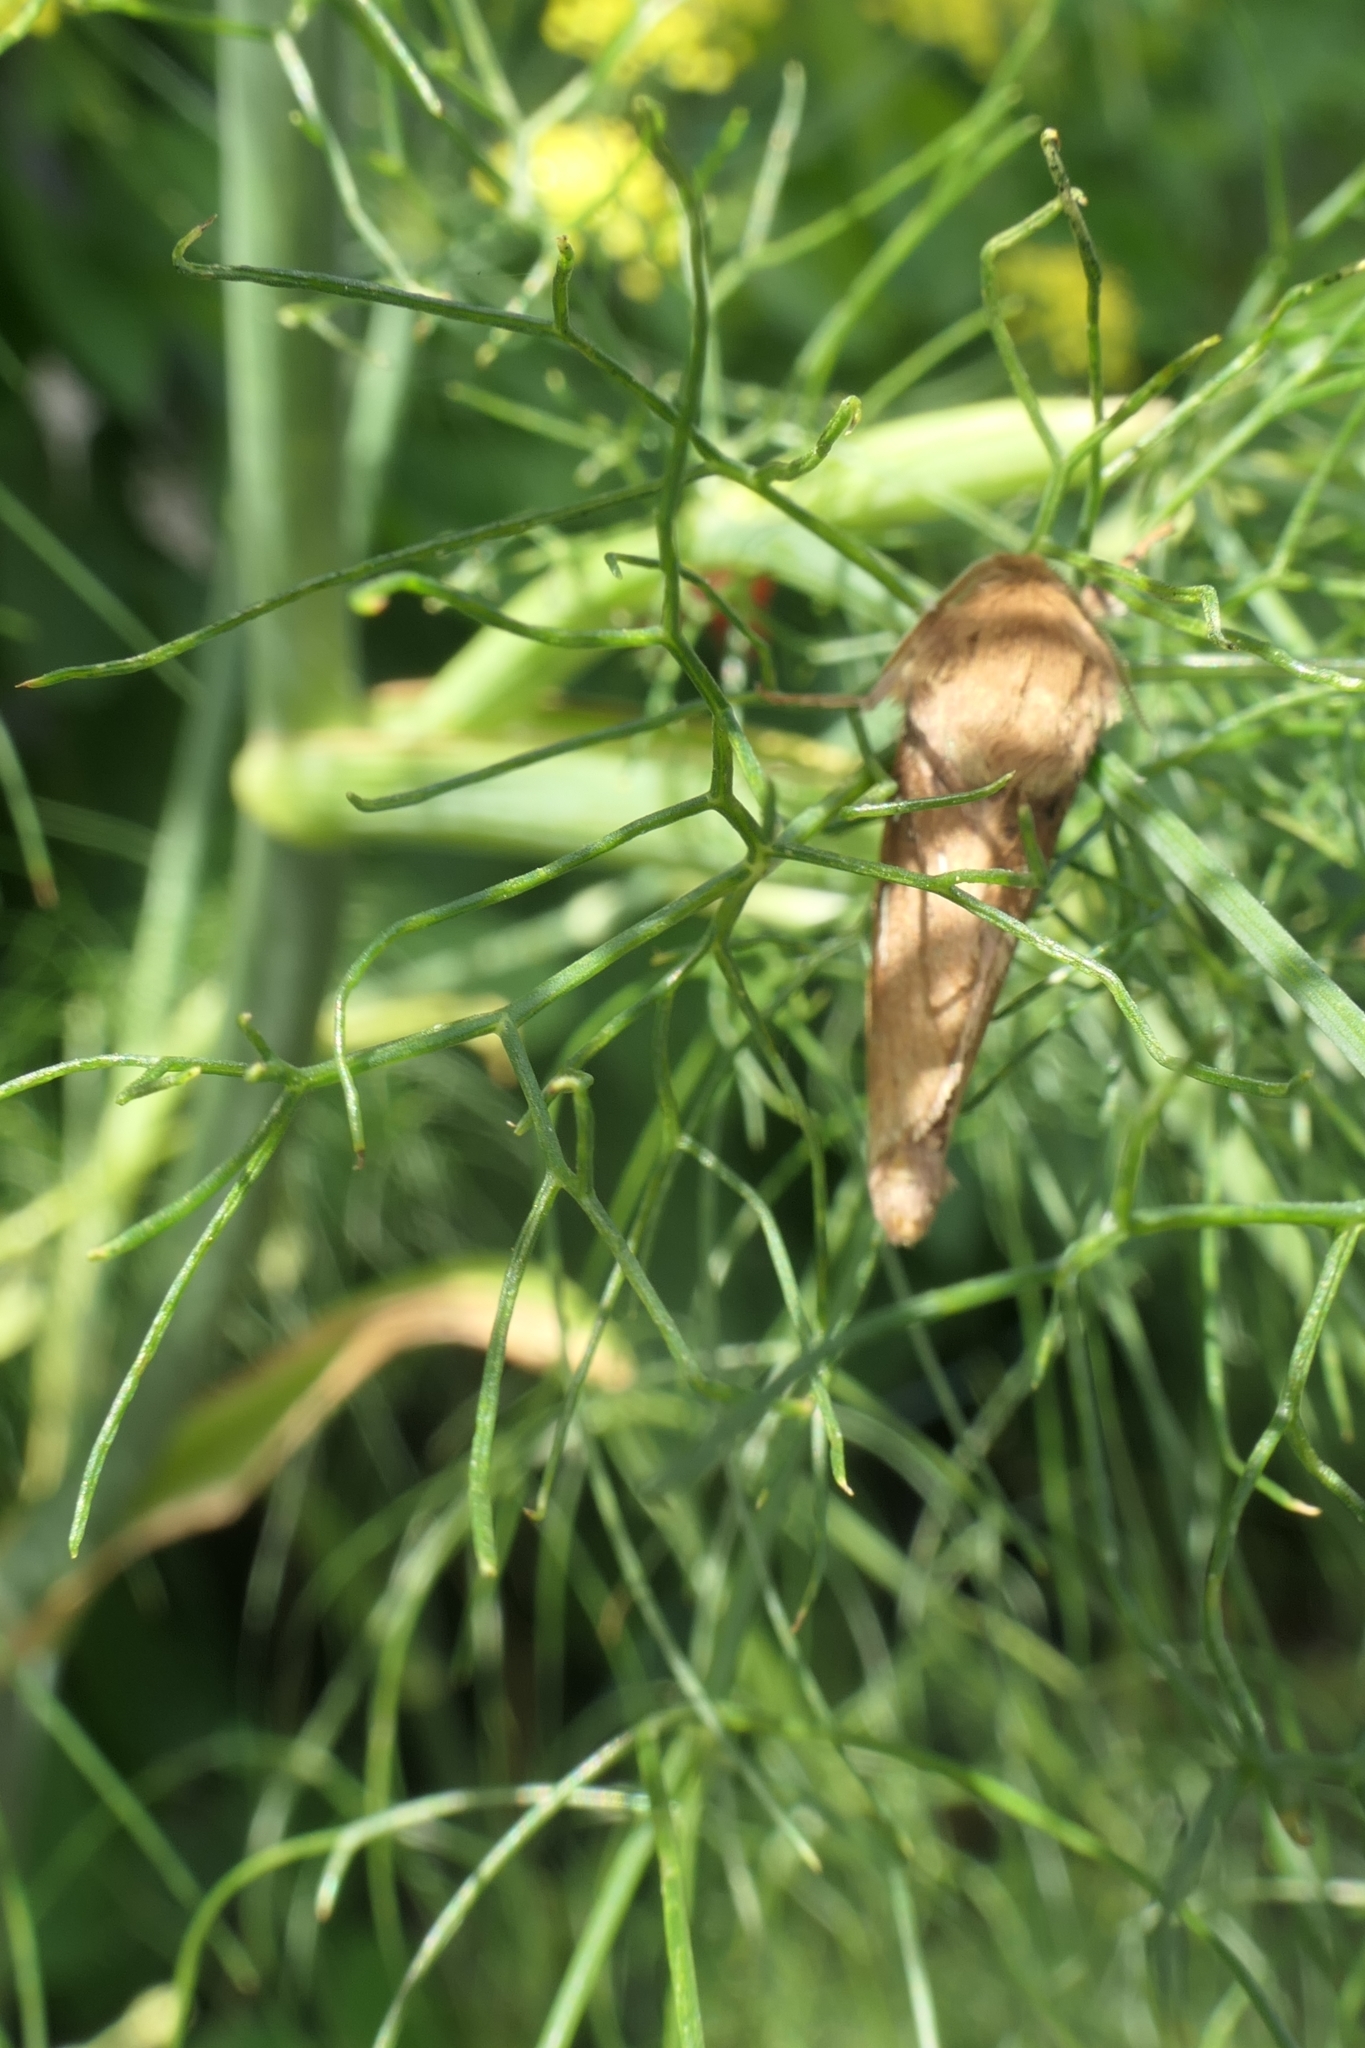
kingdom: Animalia
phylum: Arthropoda
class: Insecta
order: Lepidoptera
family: Hepialidae
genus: Wiseana
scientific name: Wiseana copularis
